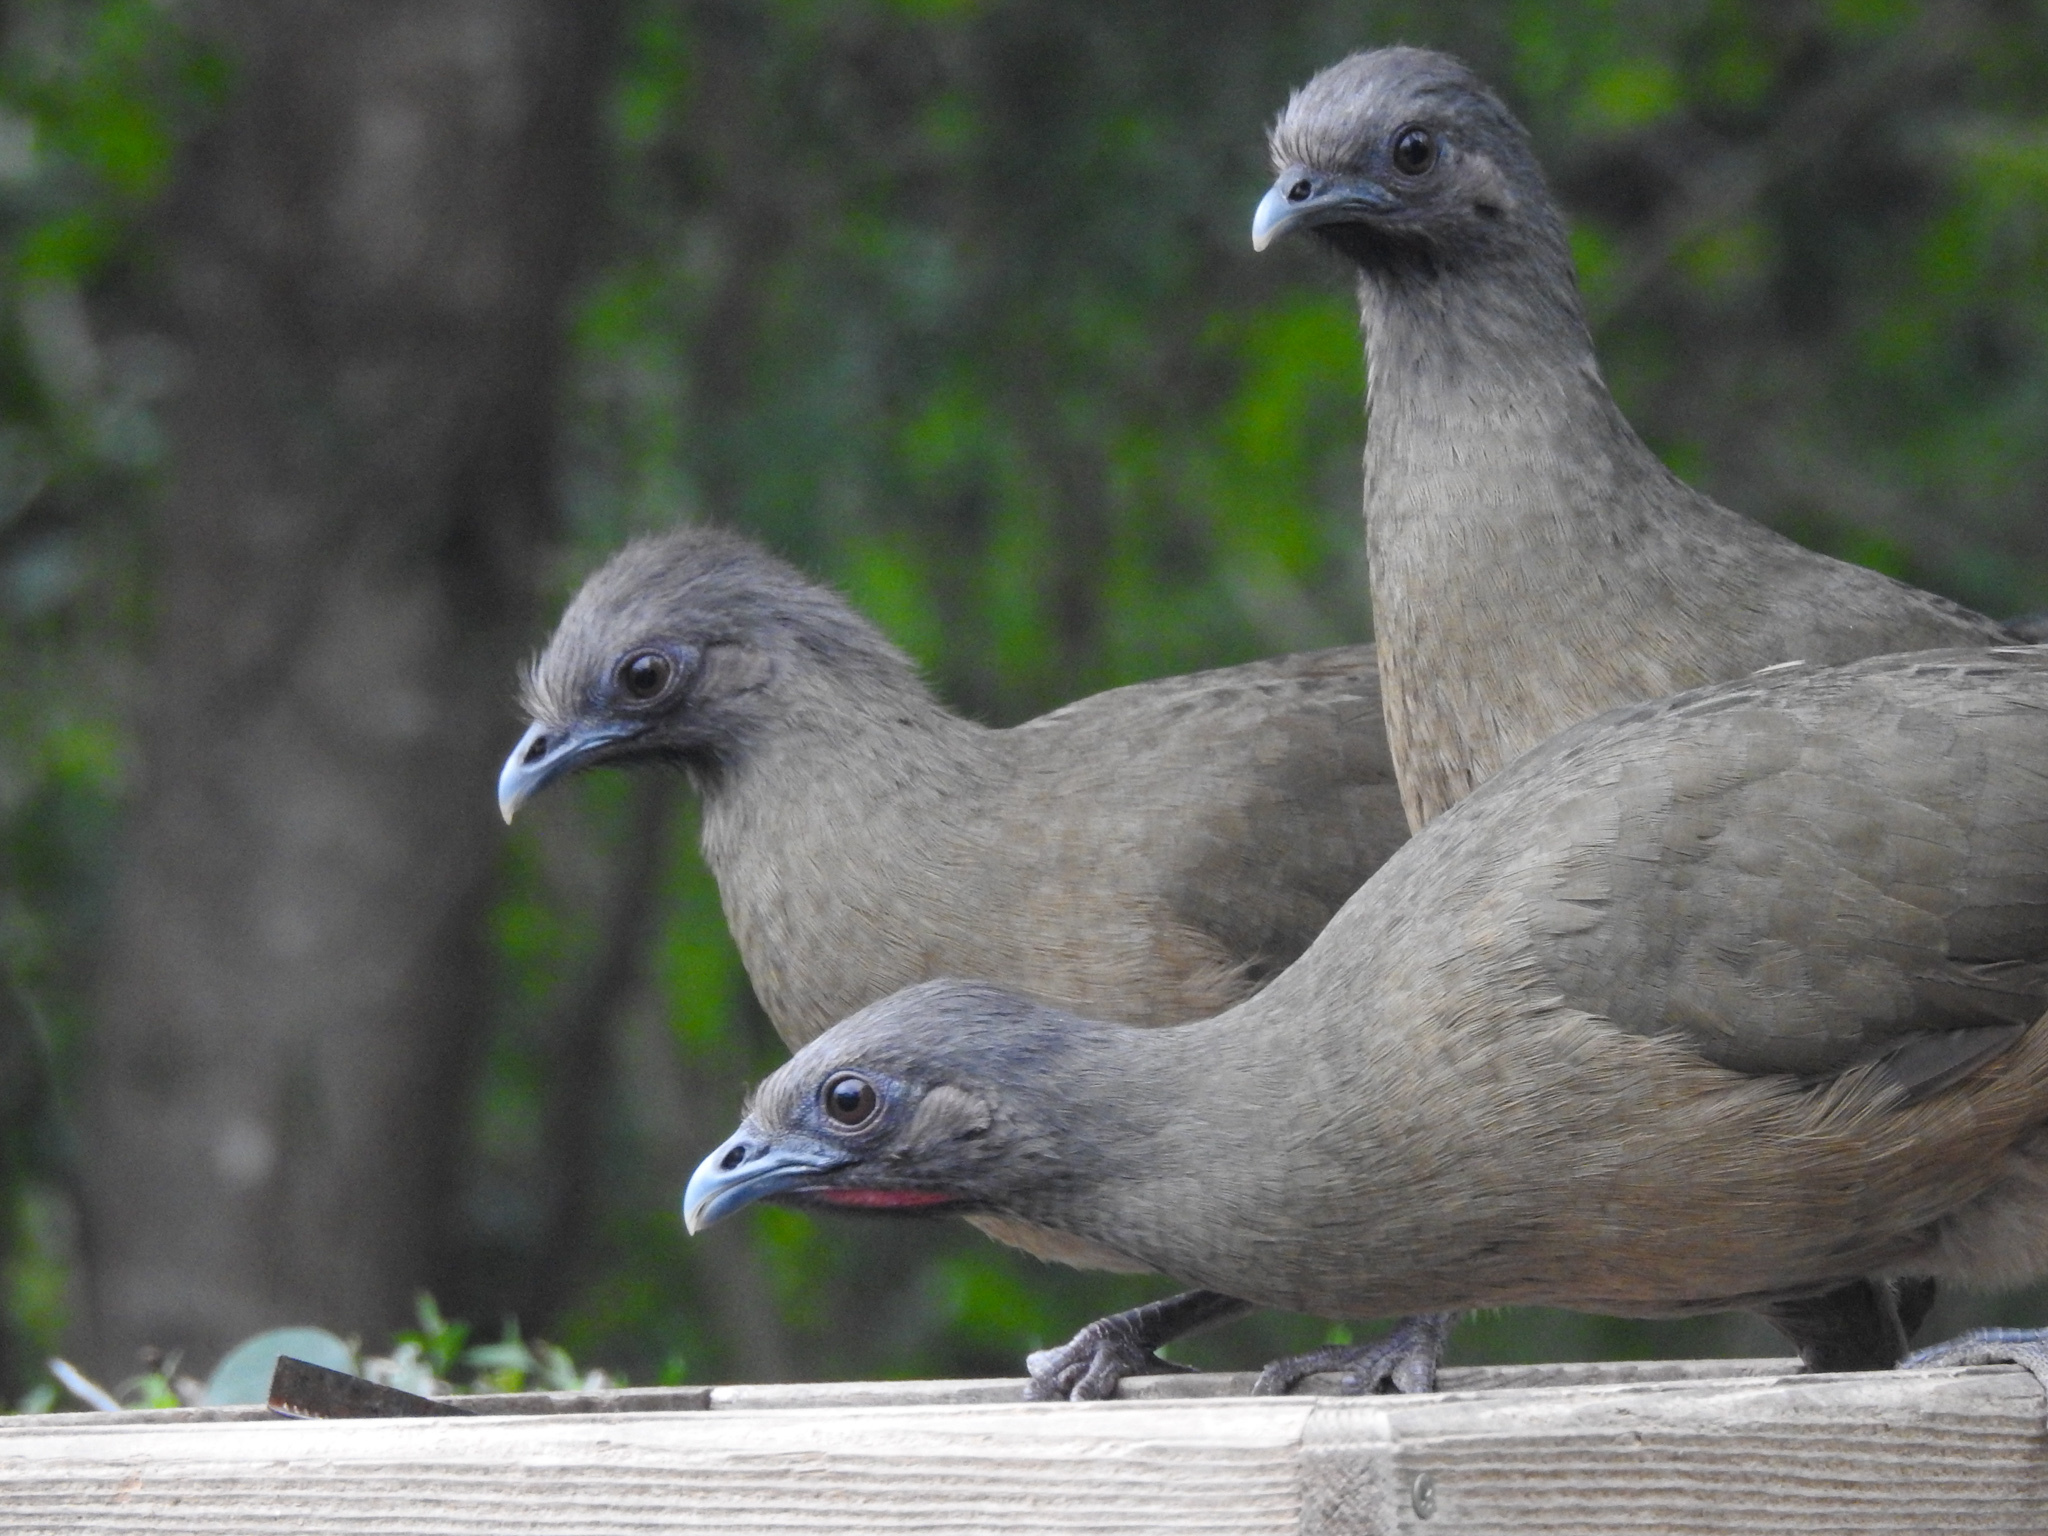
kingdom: Animalia
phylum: Chordata
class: Aves
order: Galliformes
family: Cracidae
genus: Ortalis
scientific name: Ortalis vetula
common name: Plain chachalaca
